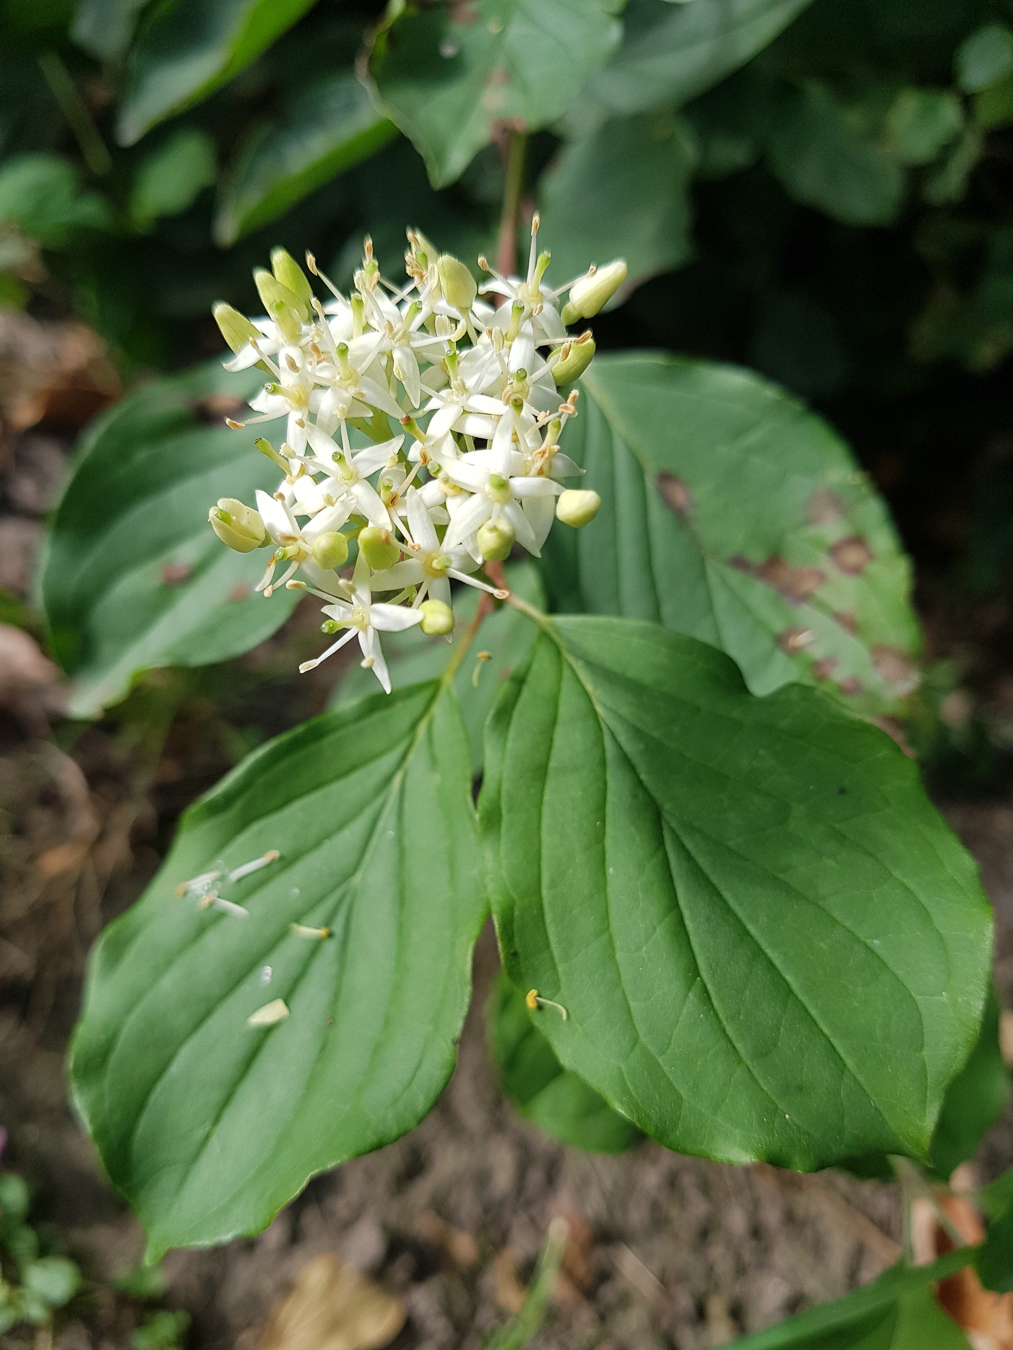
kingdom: Plantae
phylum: Tracheophyta
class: Magnoliopsida
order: Cornales
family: Cornaceae
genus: Cornus
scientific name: Cornus sanguinea
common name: Dogwood
